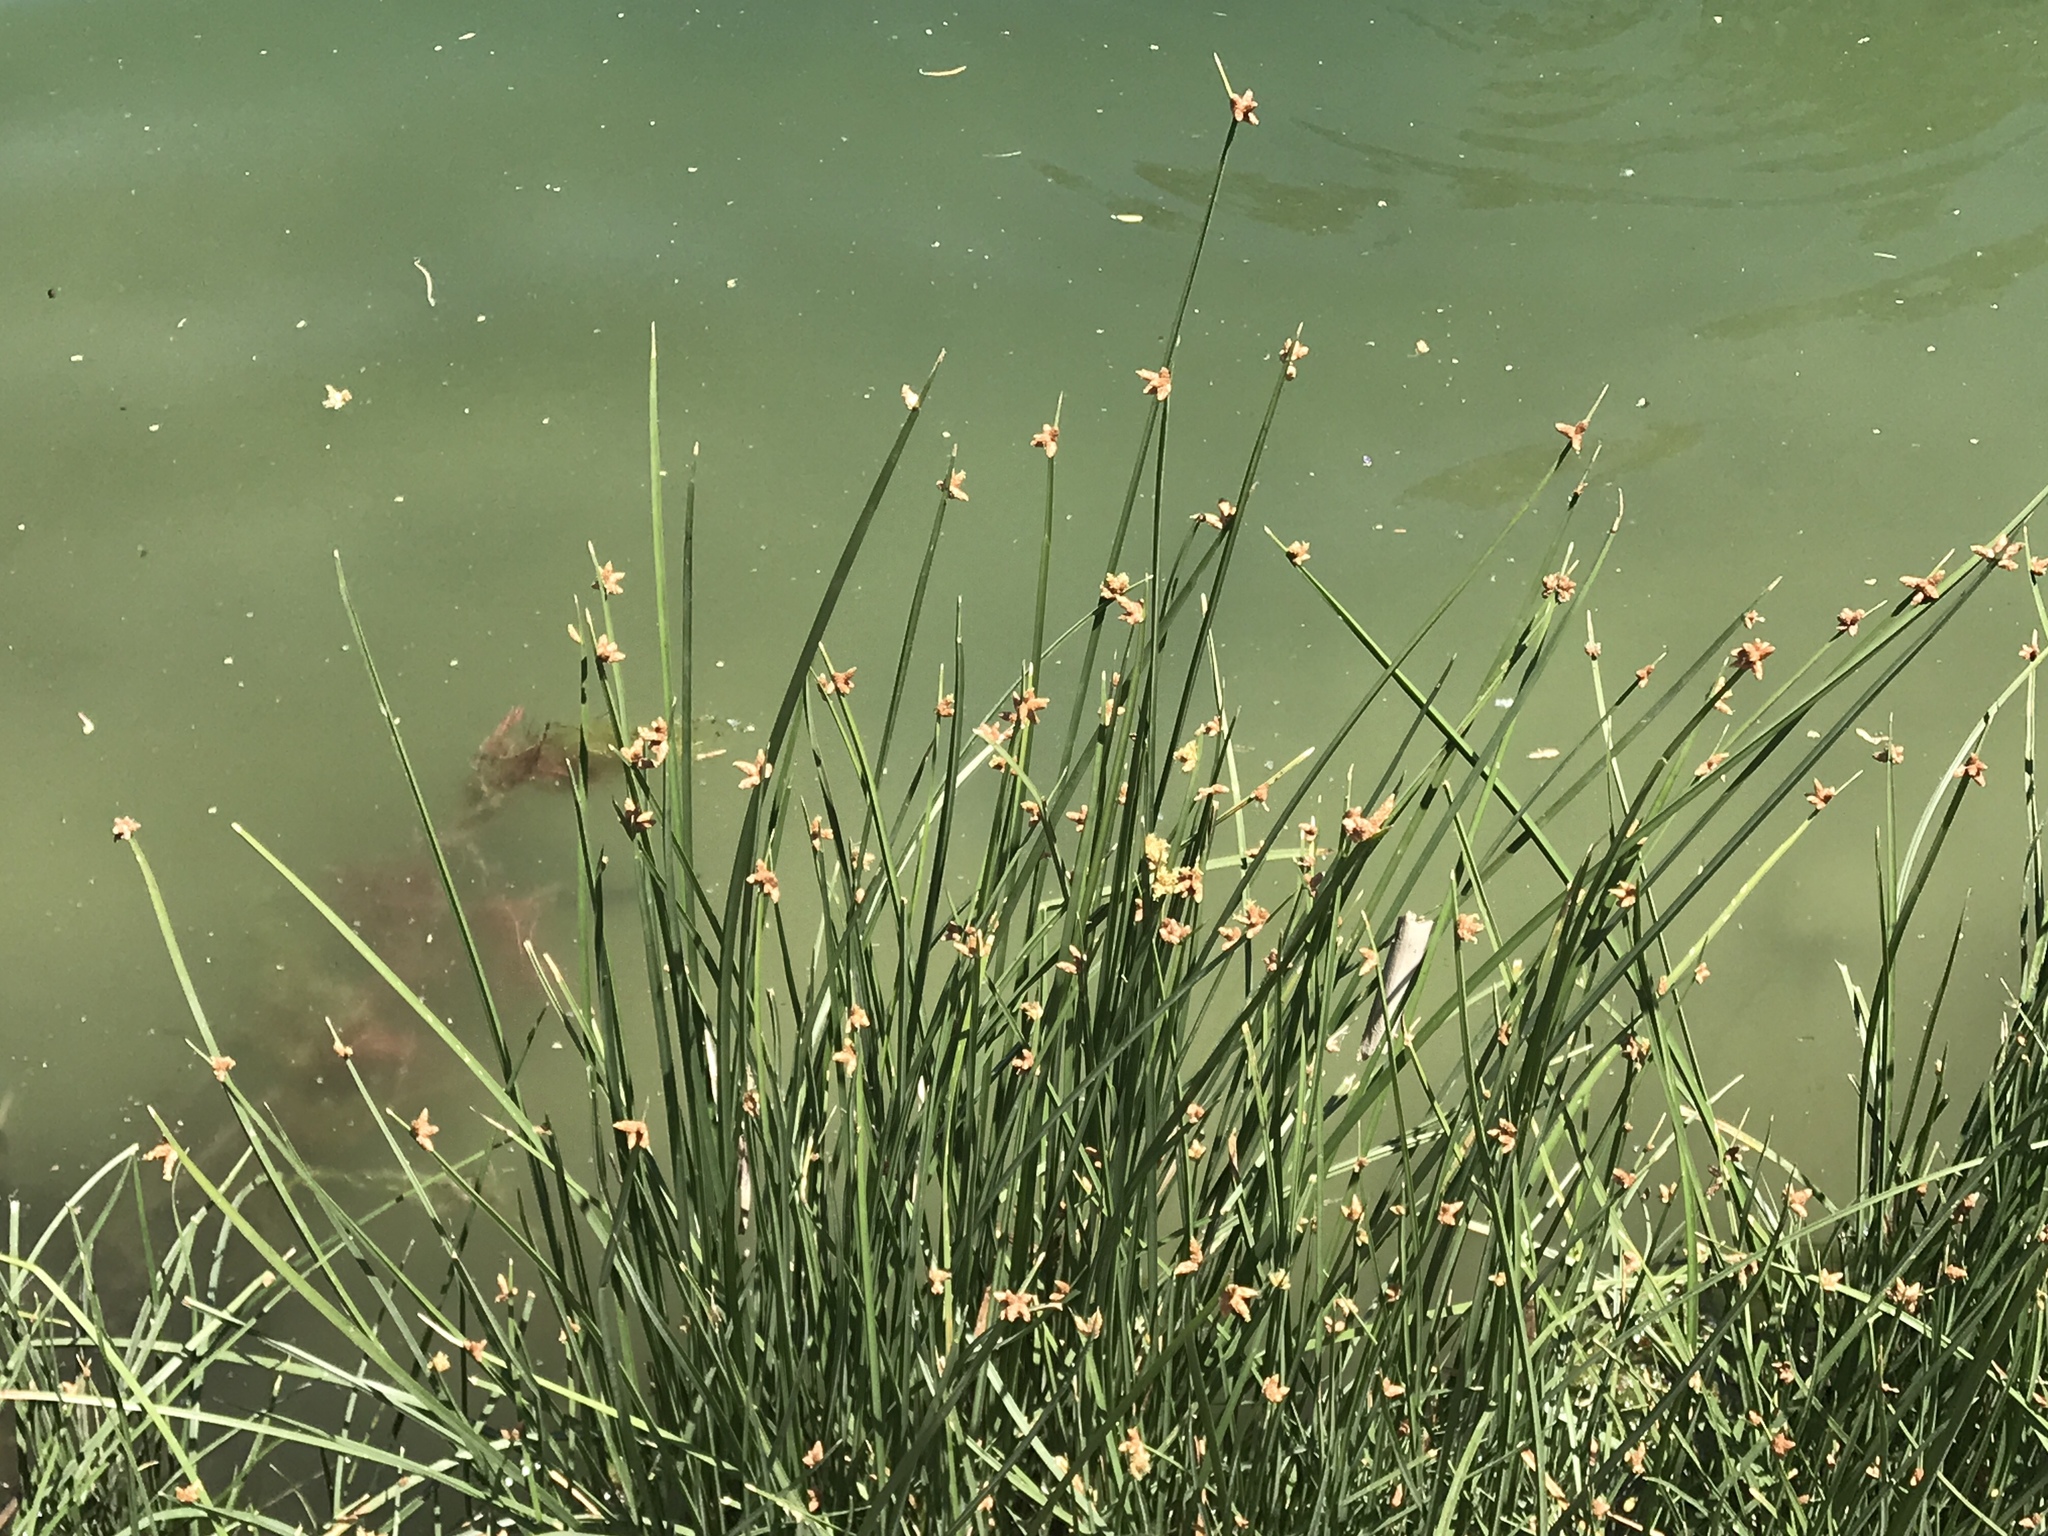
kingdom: Plantae
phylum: Tracheophyta
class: Liliopsida
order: Poales
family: Cyperaceae
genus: Schoenoplectus
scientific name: Schoenoplectus americanus
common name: American three-square bulrush
